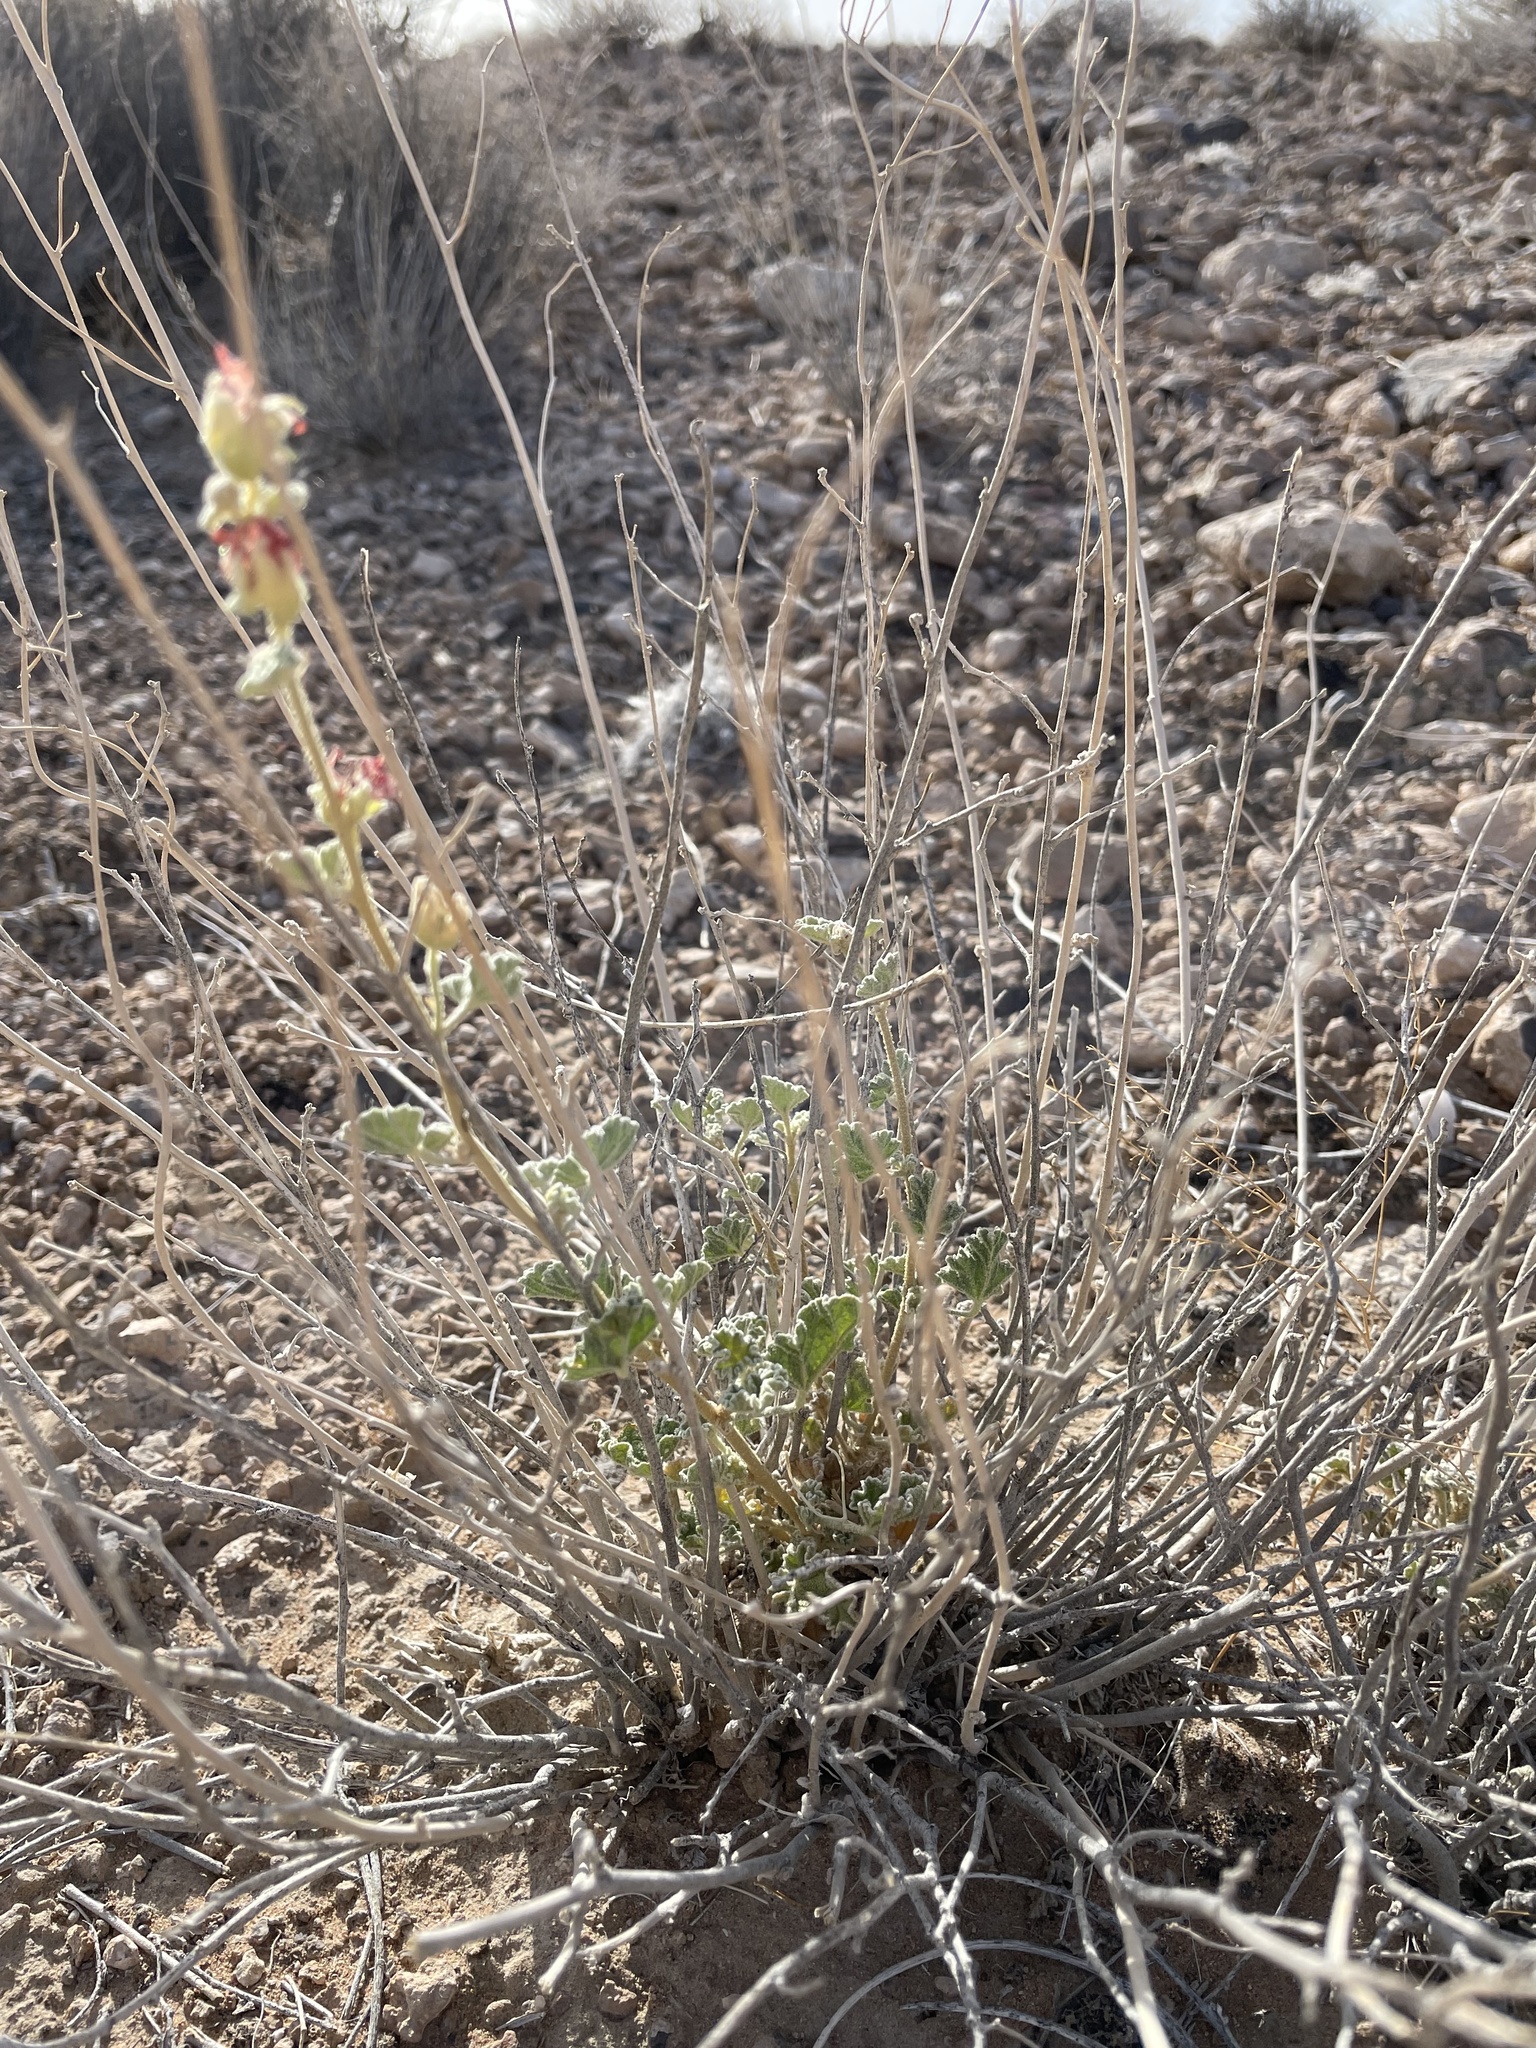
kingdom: Plantae
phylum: Tracheophyta
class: Magnoliopsida
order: Malvales
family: Malvaceae
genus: Sphaeralcea
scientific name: Sphaeralcea ambigua
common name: Apricot globe-mallow
